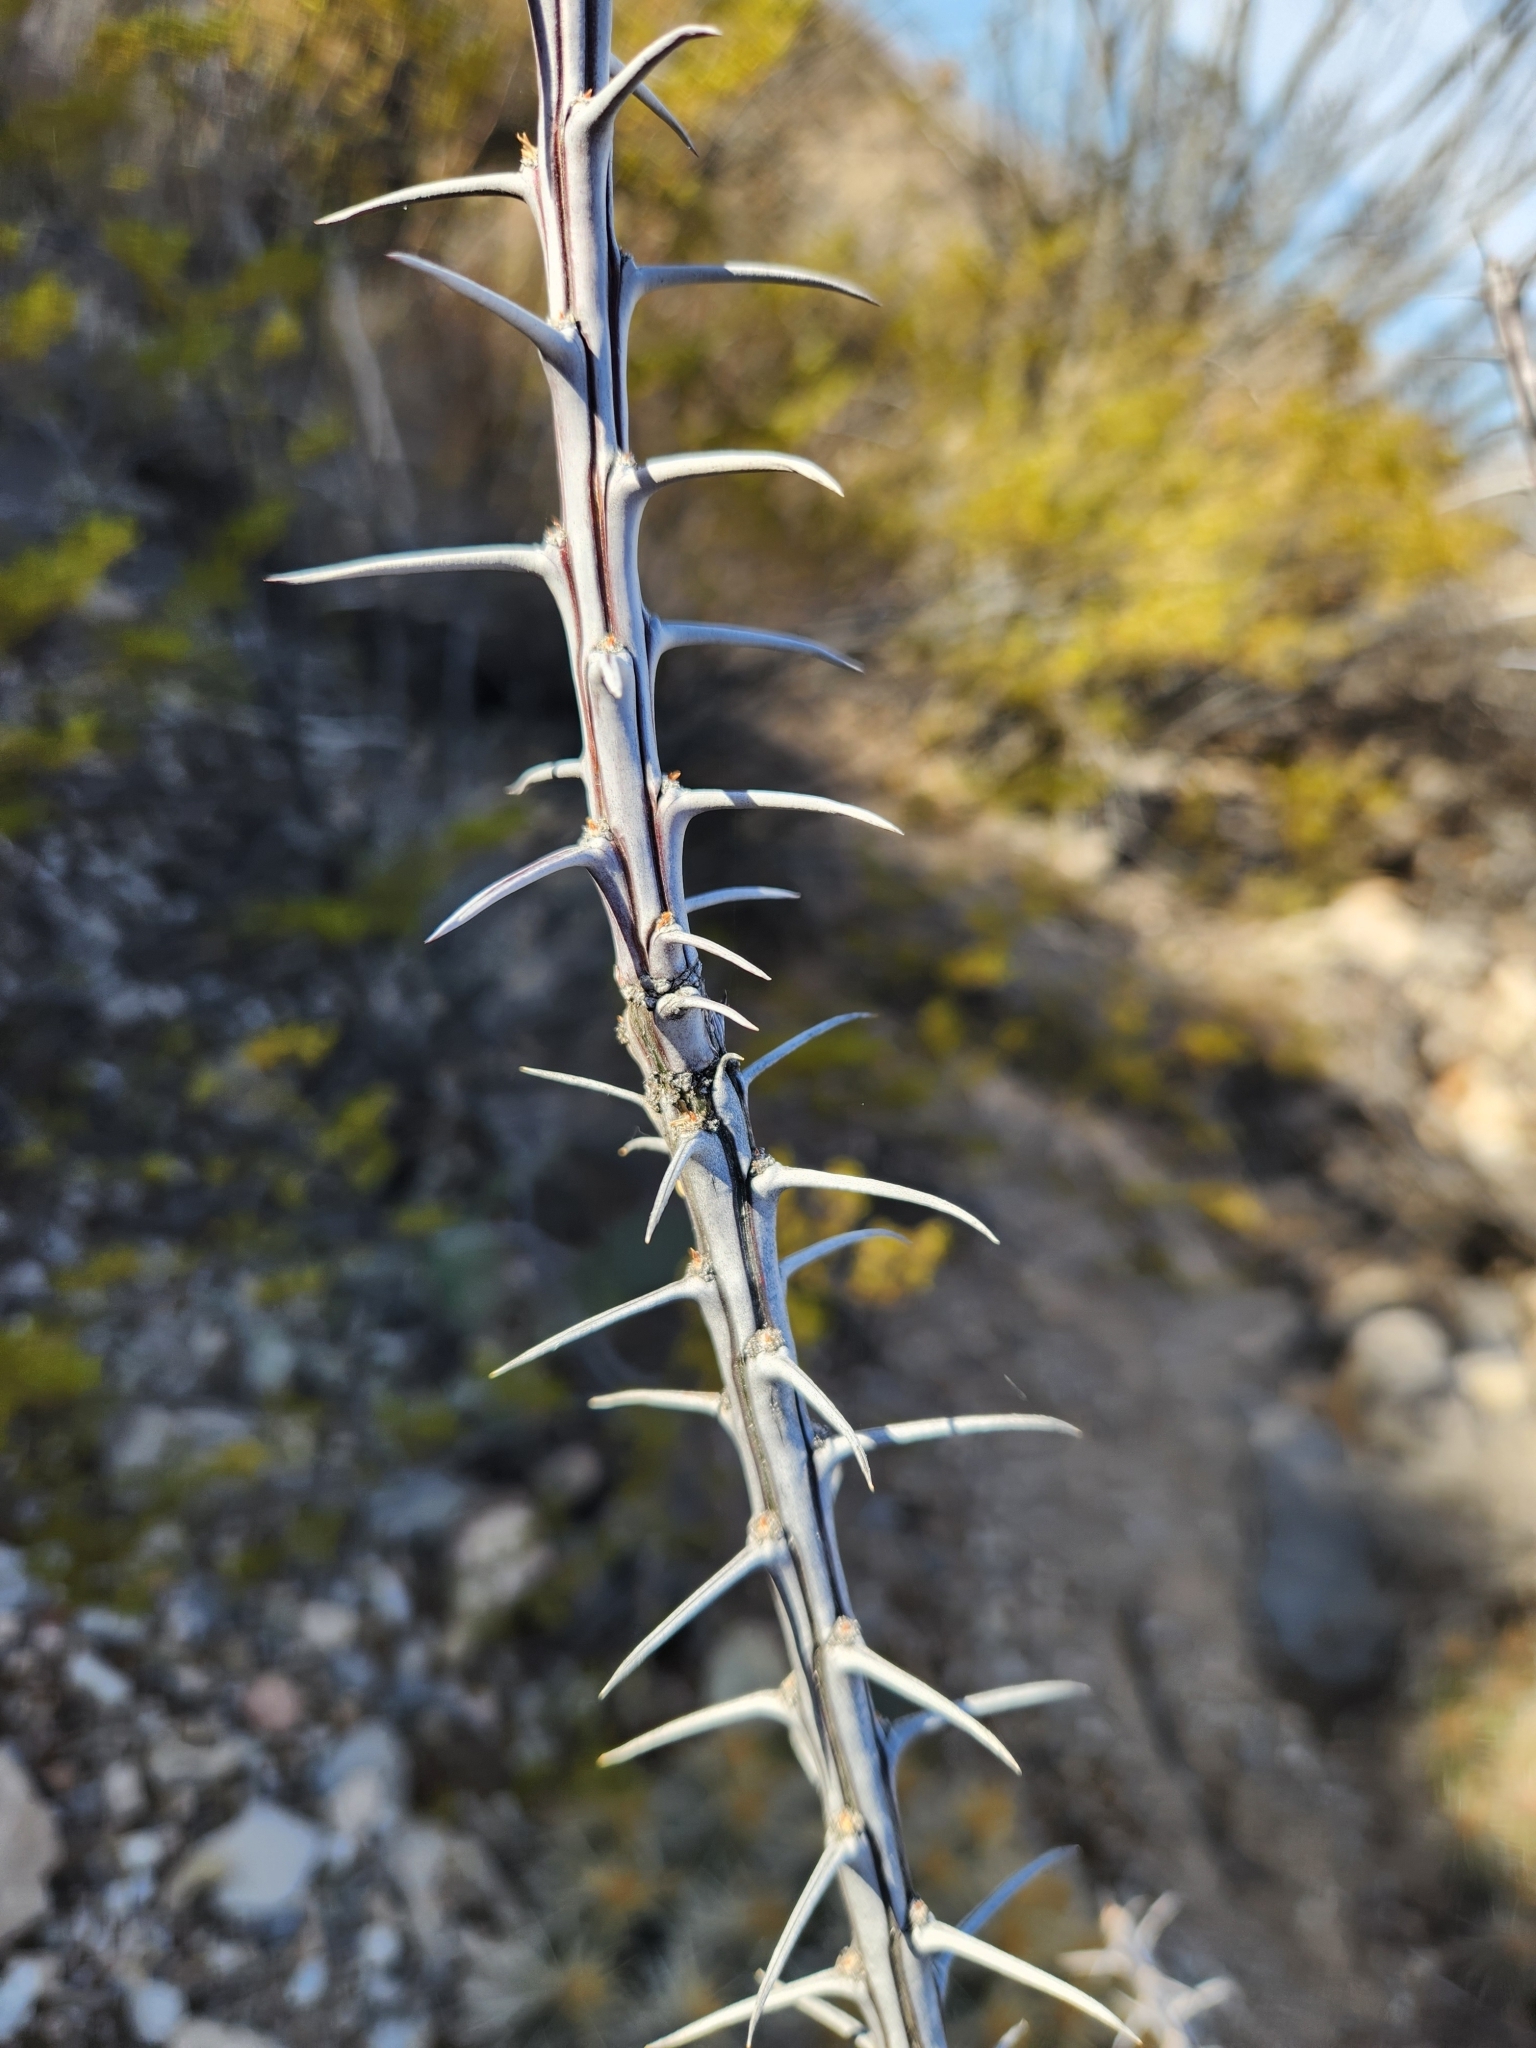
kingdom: Plantae
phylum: Tracheophyta
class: Magnoliopsida
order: Ericales
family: Fouquieriaceae
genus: Fouquieria
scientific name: Fouquieria splendens
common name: Vine-cactus
